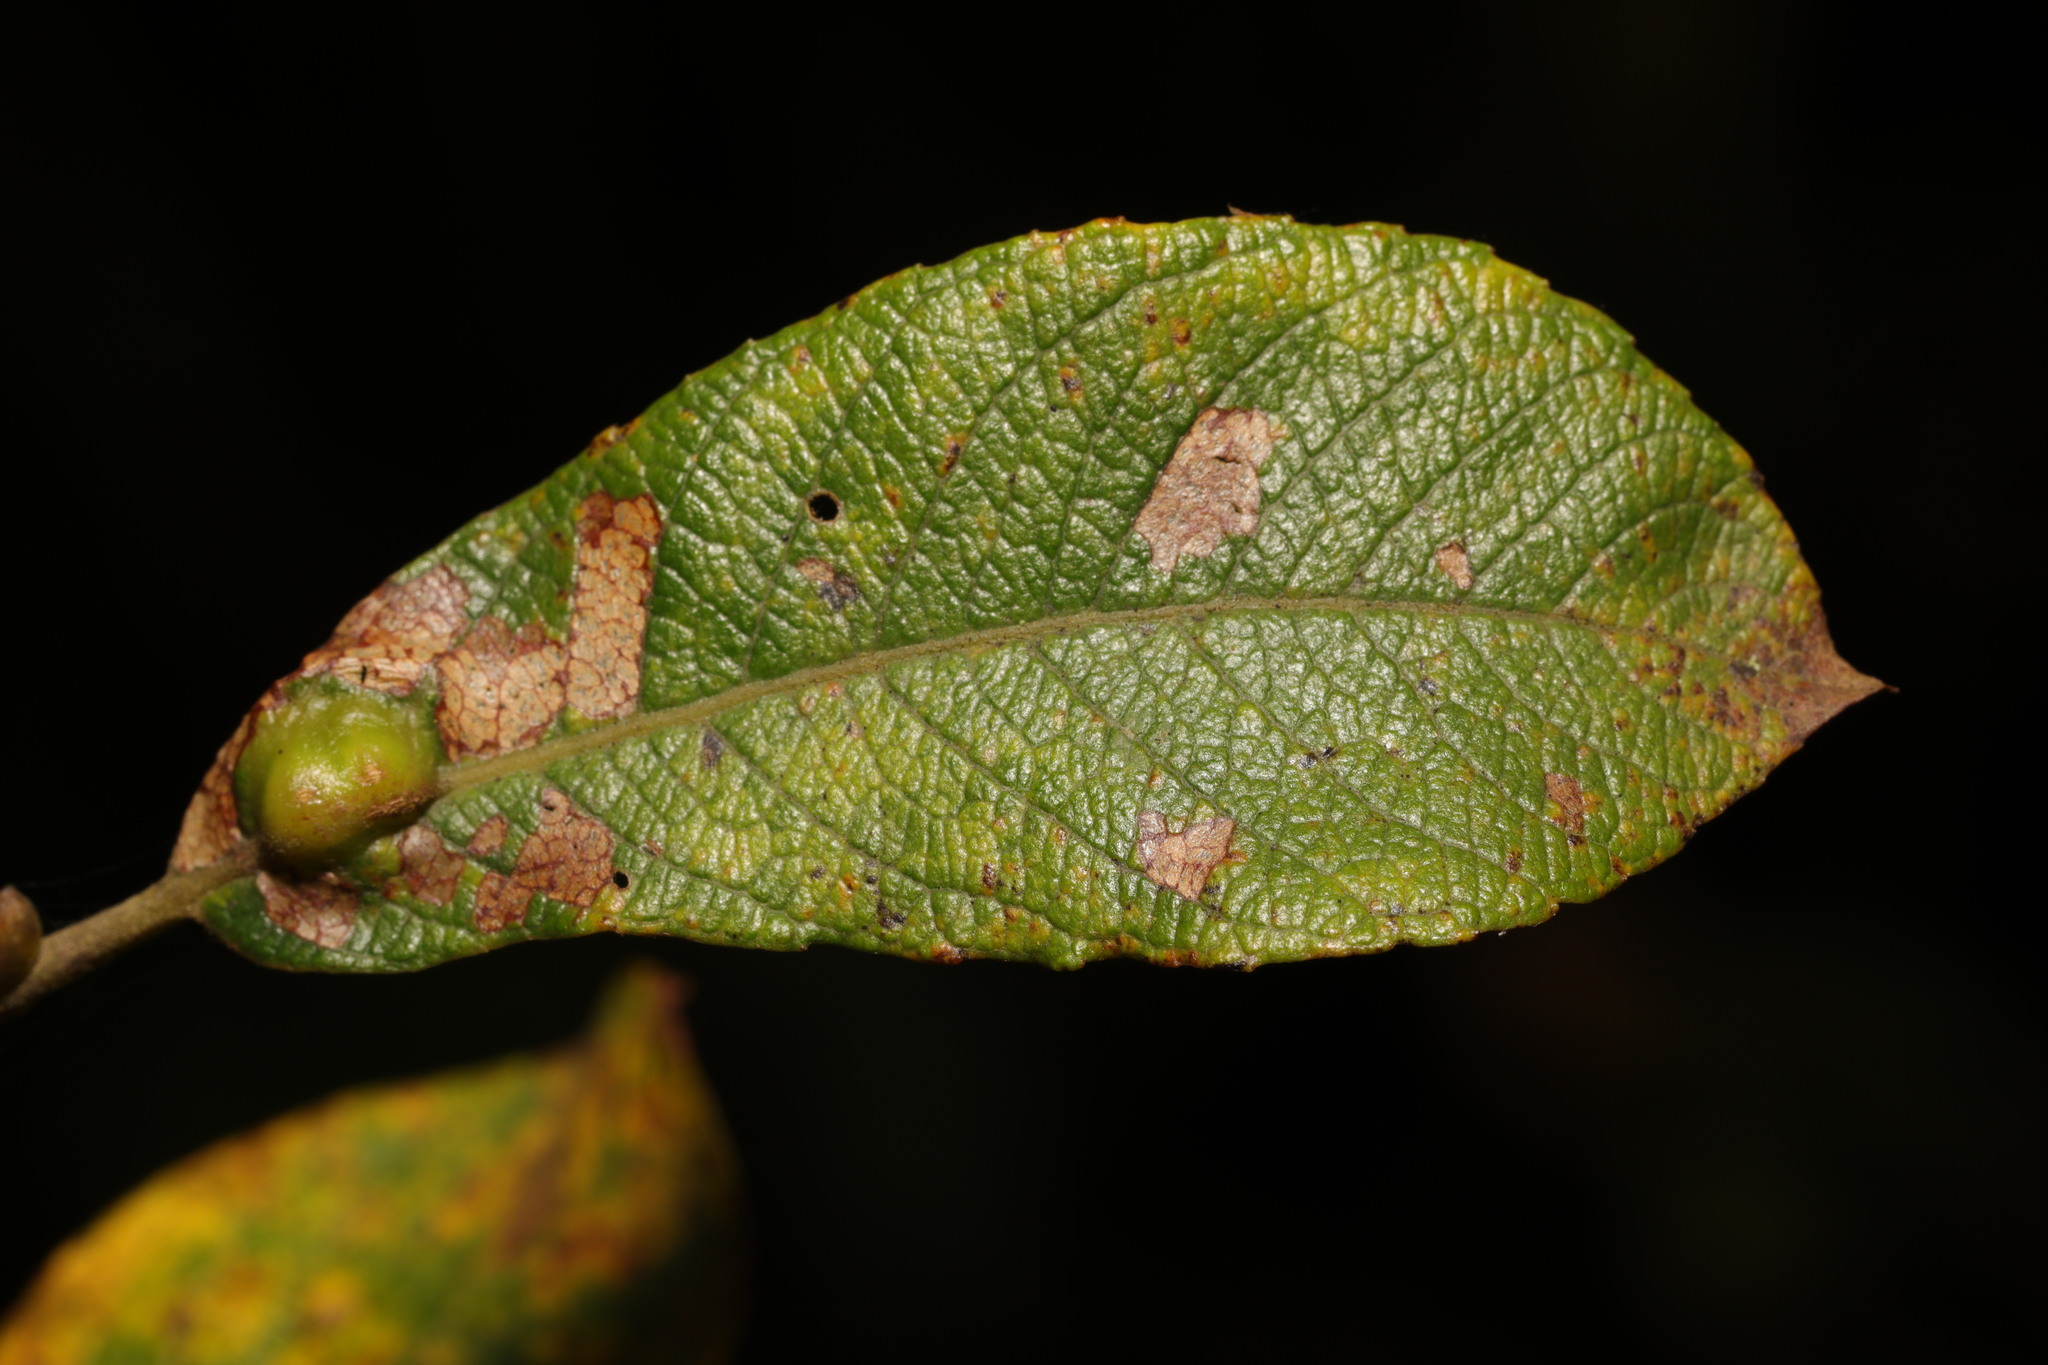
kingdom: Plantae
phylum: Tracheophyta
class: Magnoliopsida
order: Malpighiales
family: Salicaceae
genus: Salix
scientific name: Salix cinerea
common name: Common sallow
